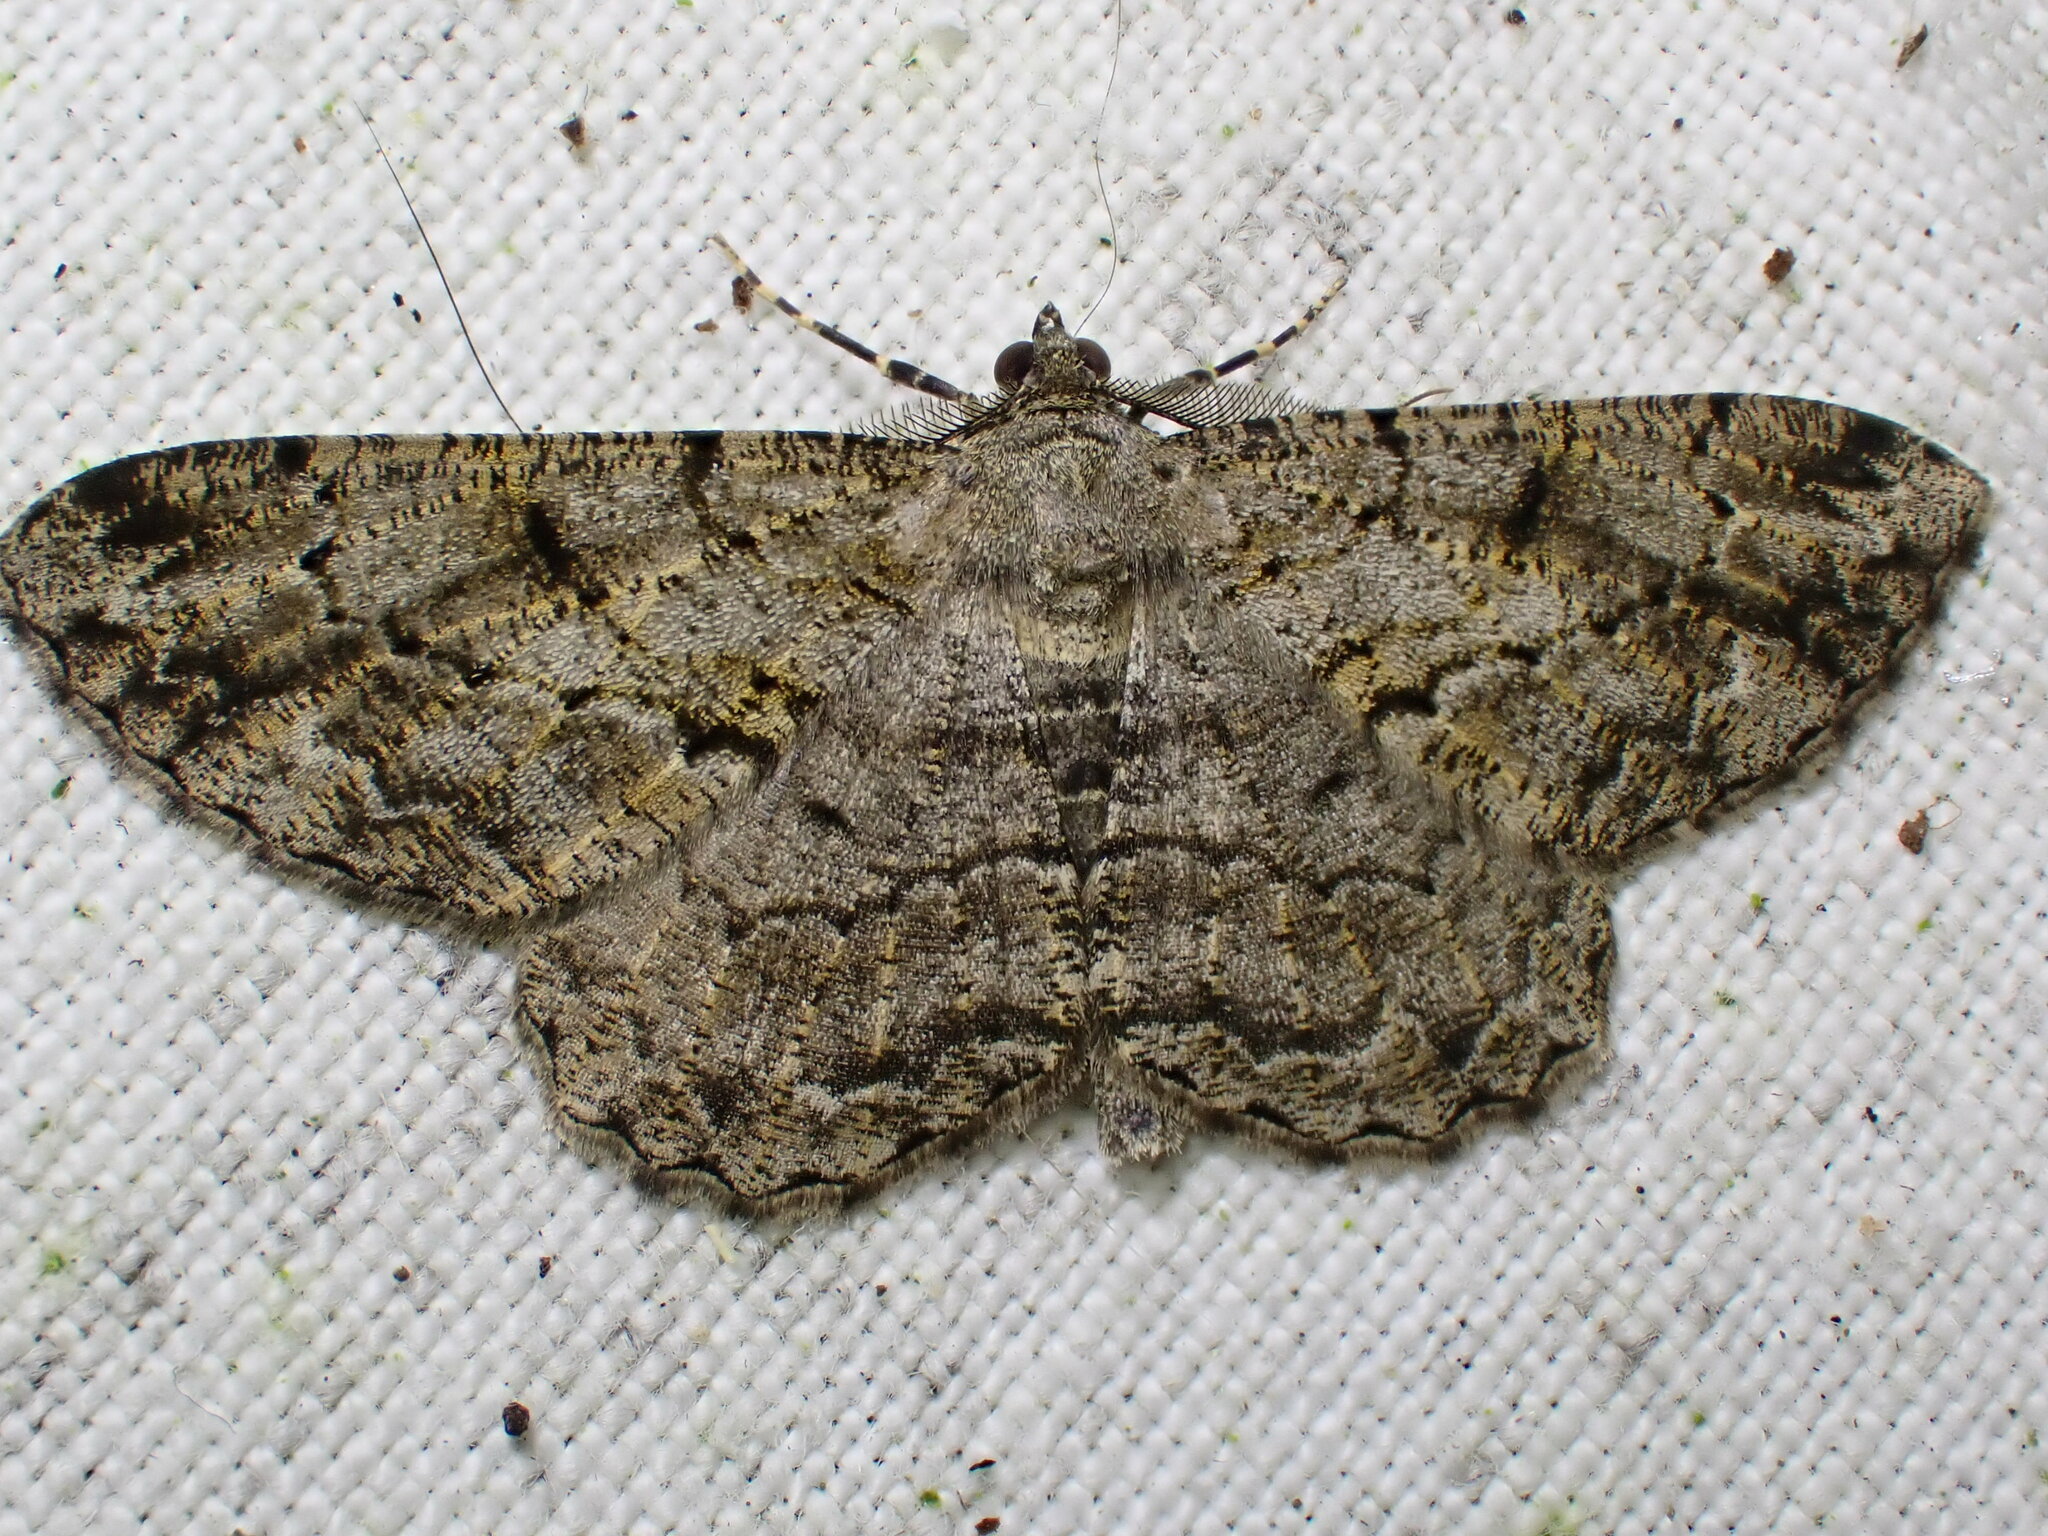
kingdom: Animalia
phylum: Arthropoda
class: Insecta
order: Lepidoptera
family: Geometridae
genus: Peribatodes
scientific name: Peribatodes rhomboidaria
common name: Willow beauty
